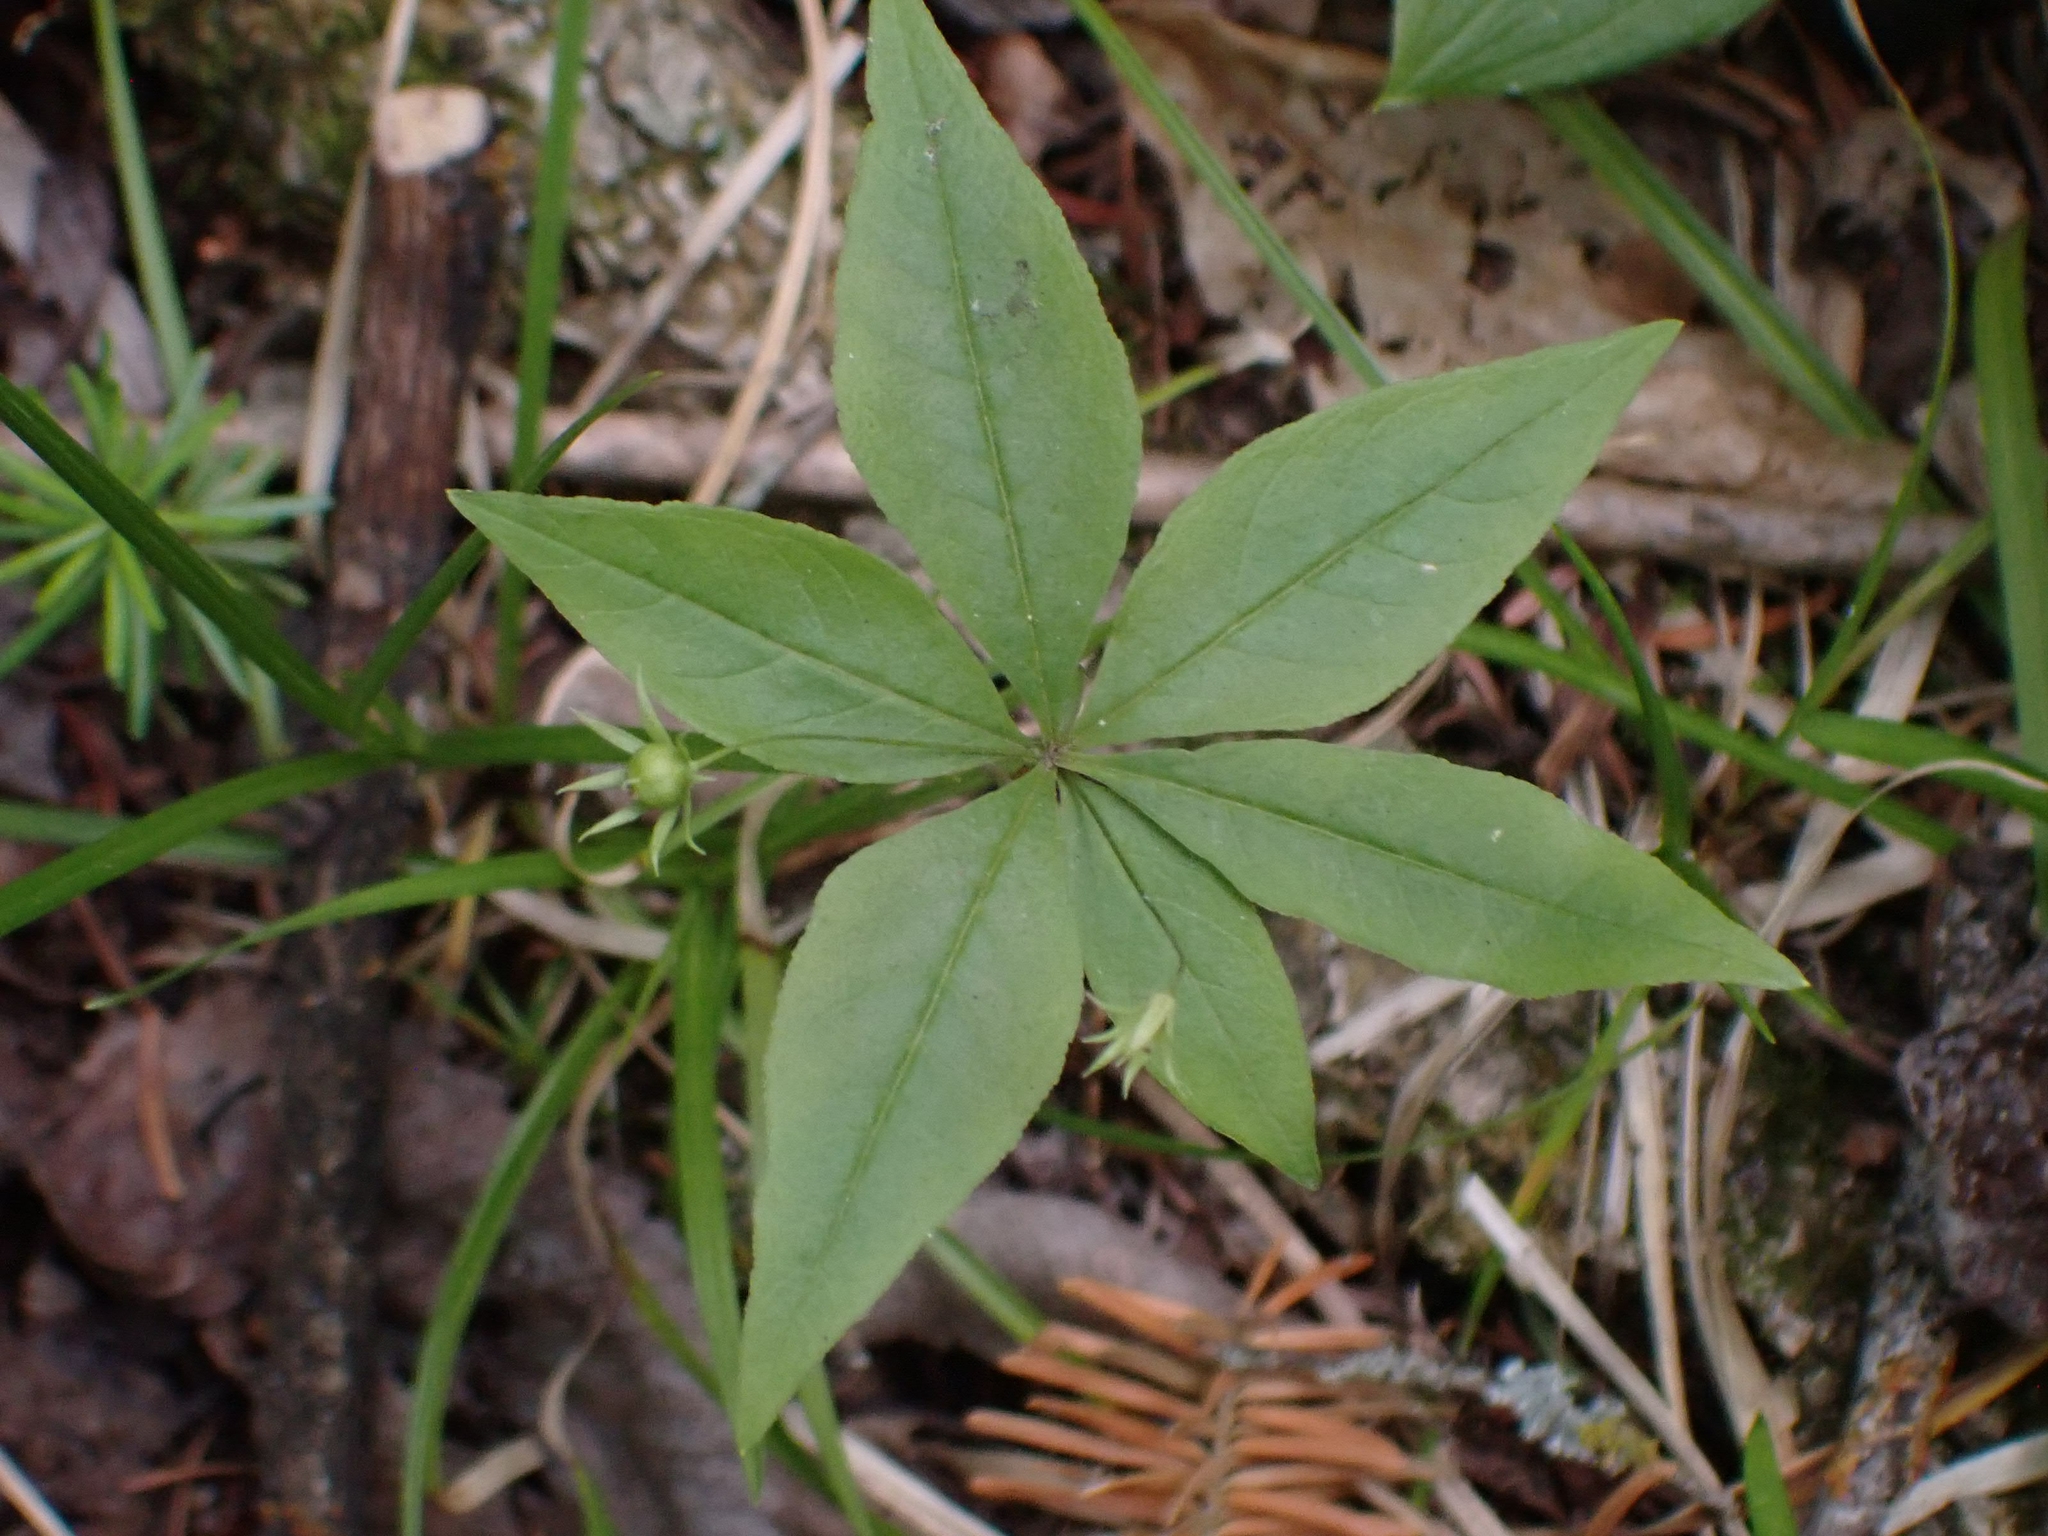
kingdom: Plantae
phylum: Tracheophyta
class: Magnoliopsida
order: Ericales
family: Primulaceae
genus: Lysimachia
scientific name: Lysimachia borealis
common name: American starflower
